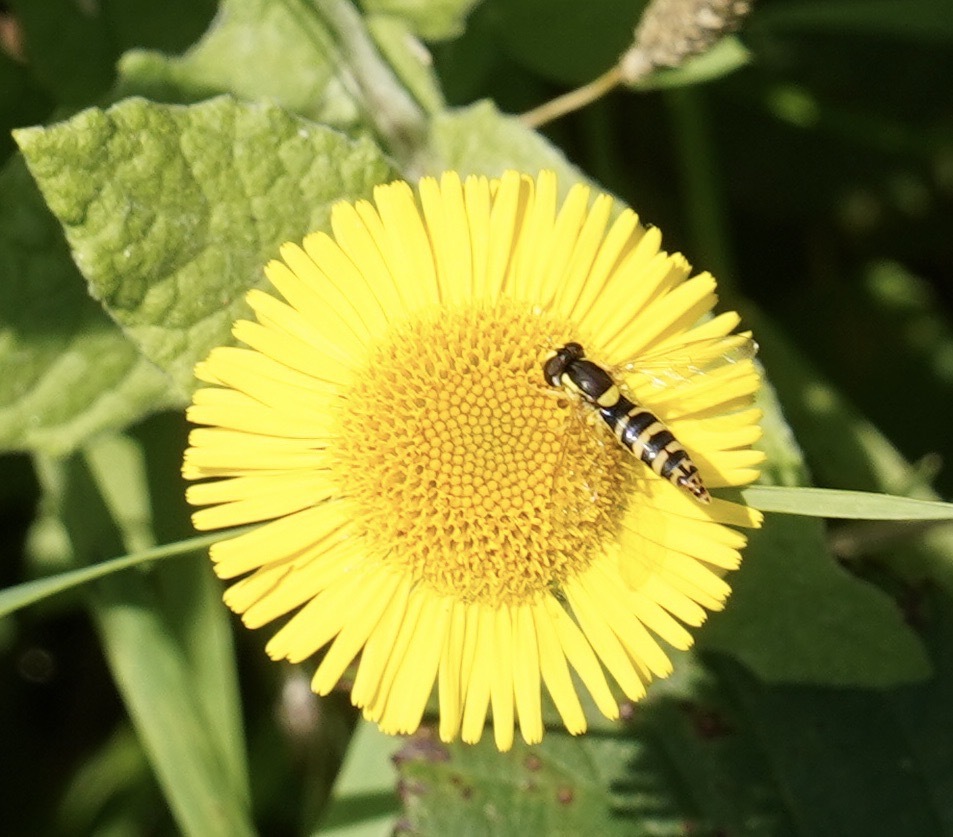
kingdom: Animalia
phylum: Arthropoda
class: Insecta
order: Diptera
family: Syrphidae
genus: Sphaerophoria
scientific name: Sphaerophoria
